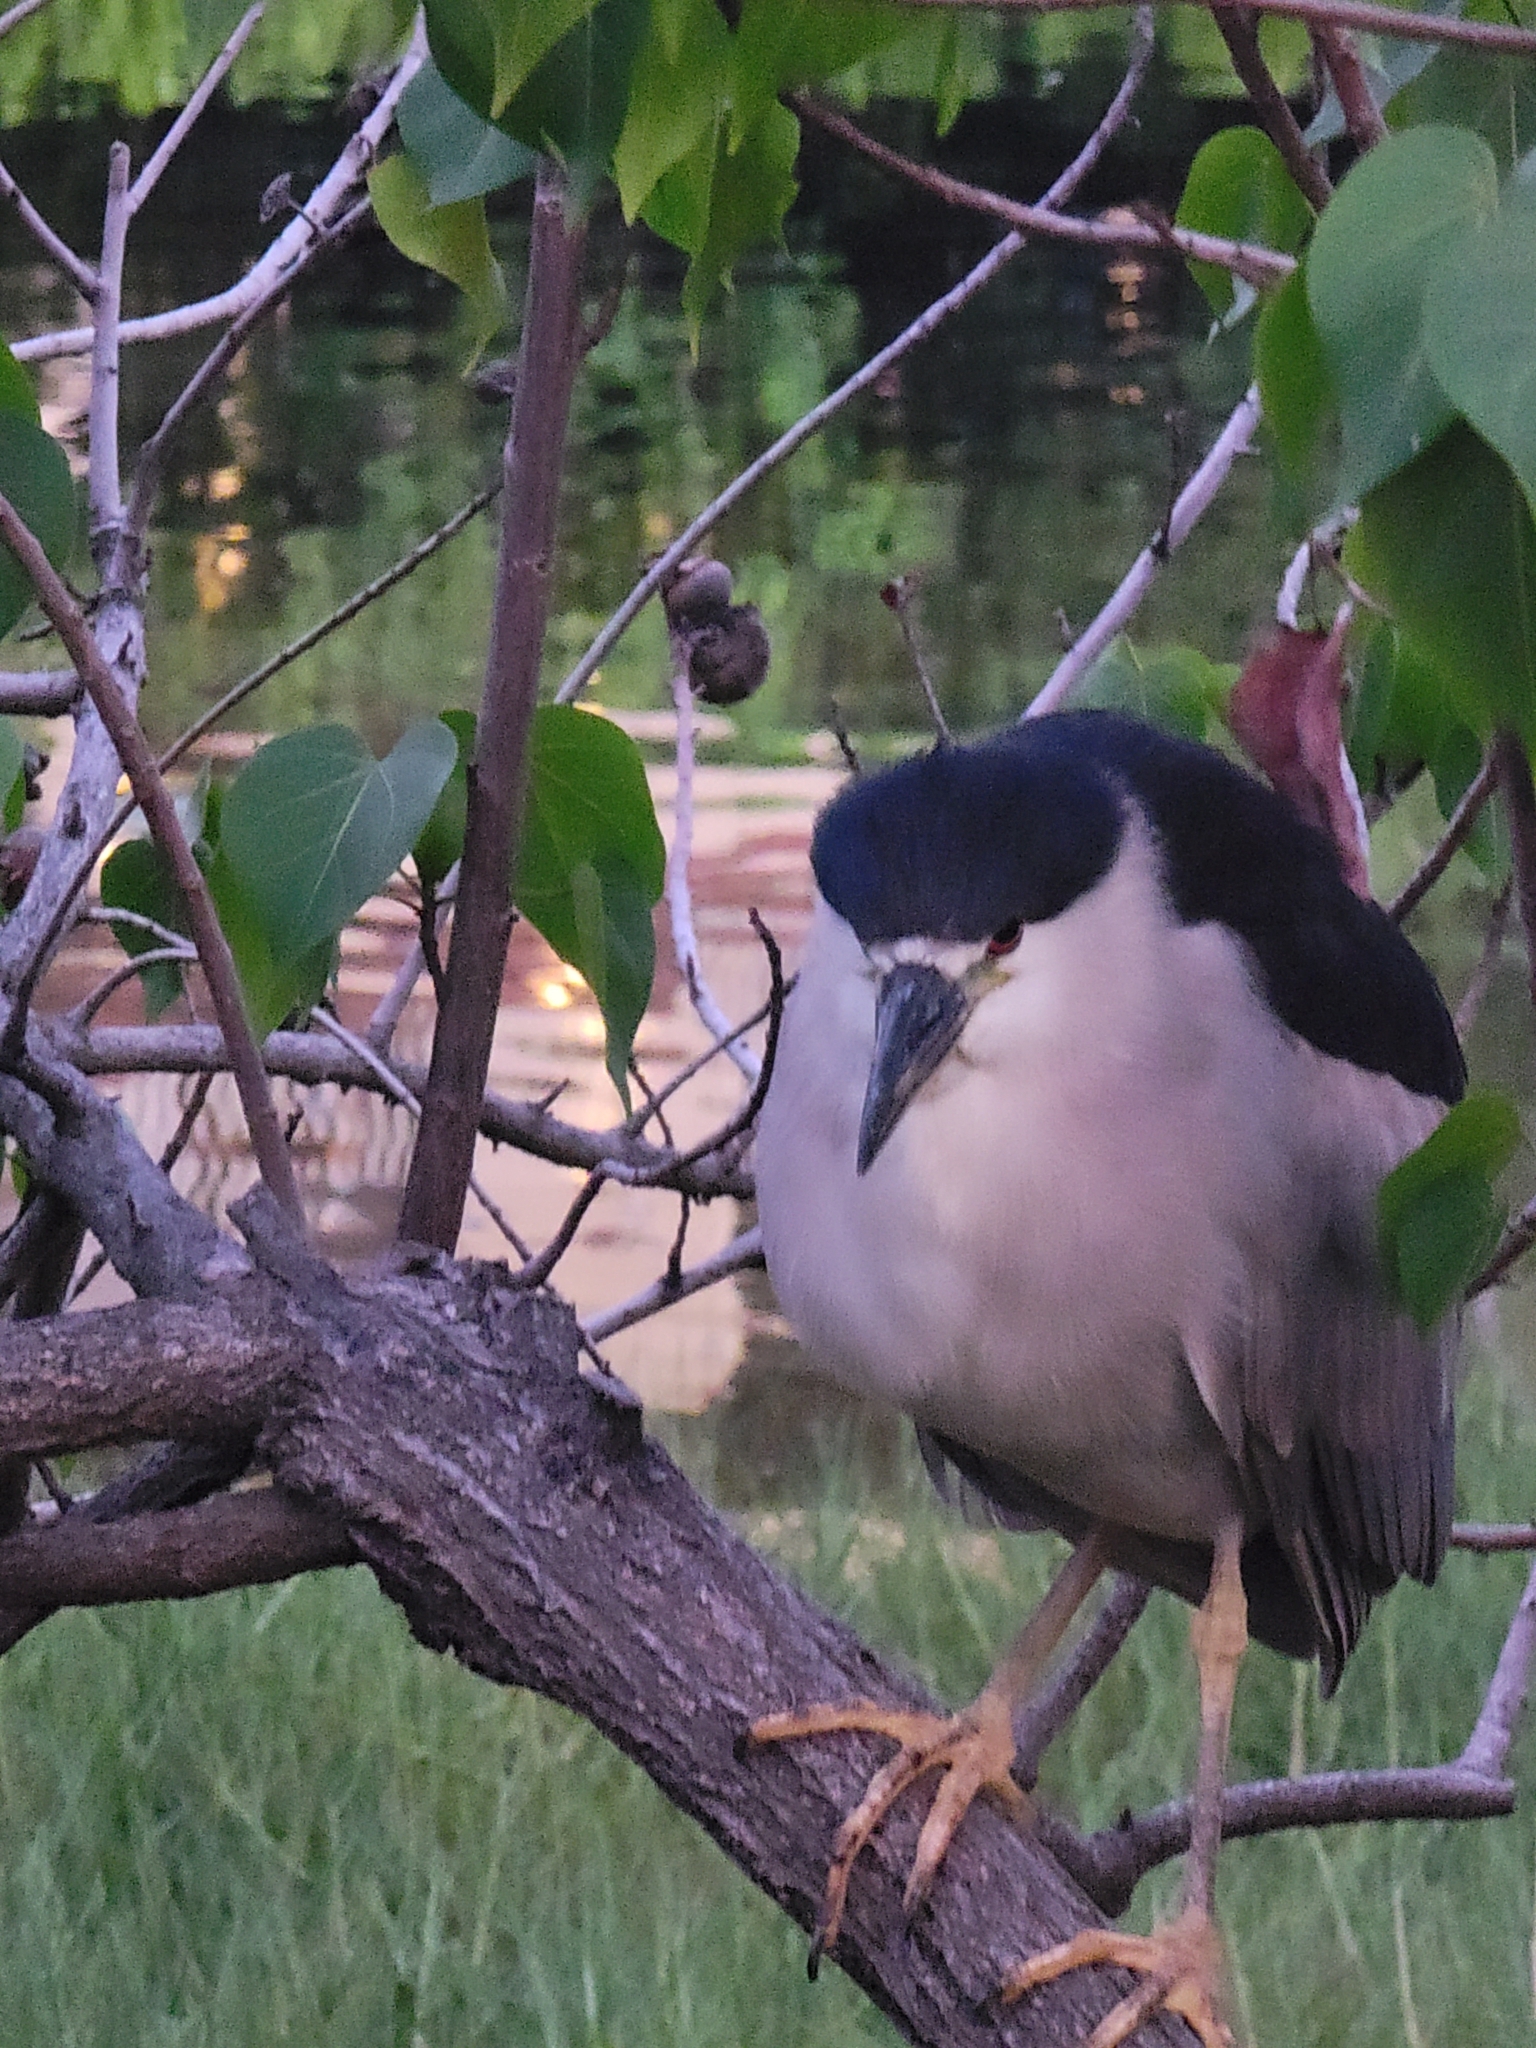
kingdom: Animalia
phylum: Chordata
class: Aves
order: Pelecaniformes
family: Ardeidae
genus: Nycticorax
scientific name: Nycticorax nycticorax
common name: Black-crowned night heron
